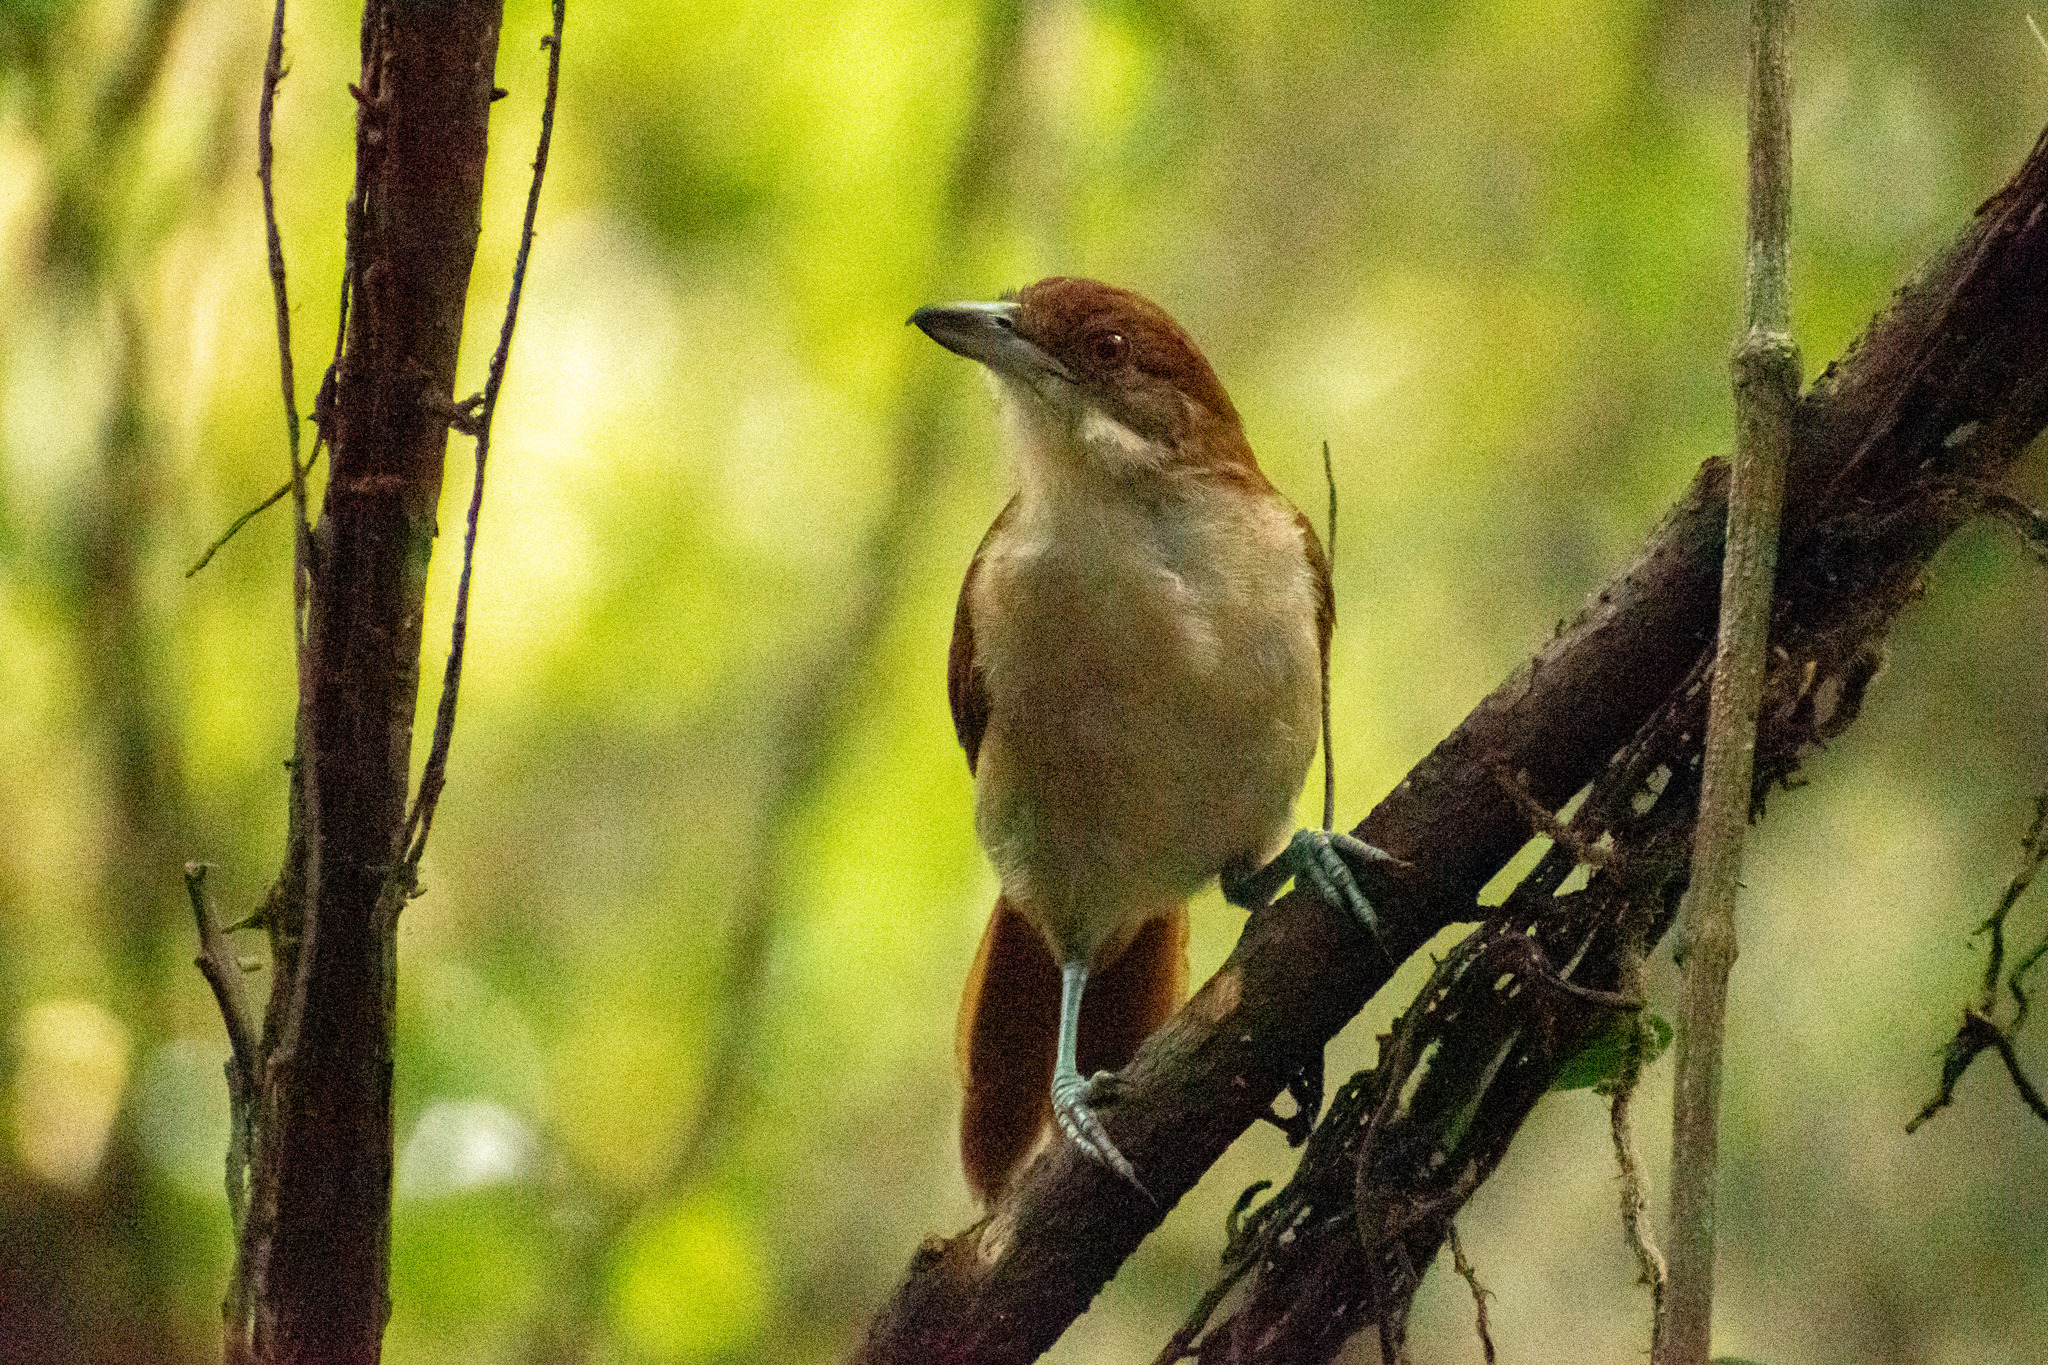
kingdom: Animalia
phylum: Chordata
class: Aves
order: Passeriformes
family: Thamnophilidae
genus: Taraba
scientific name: Taraba major
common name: Great antshrike
